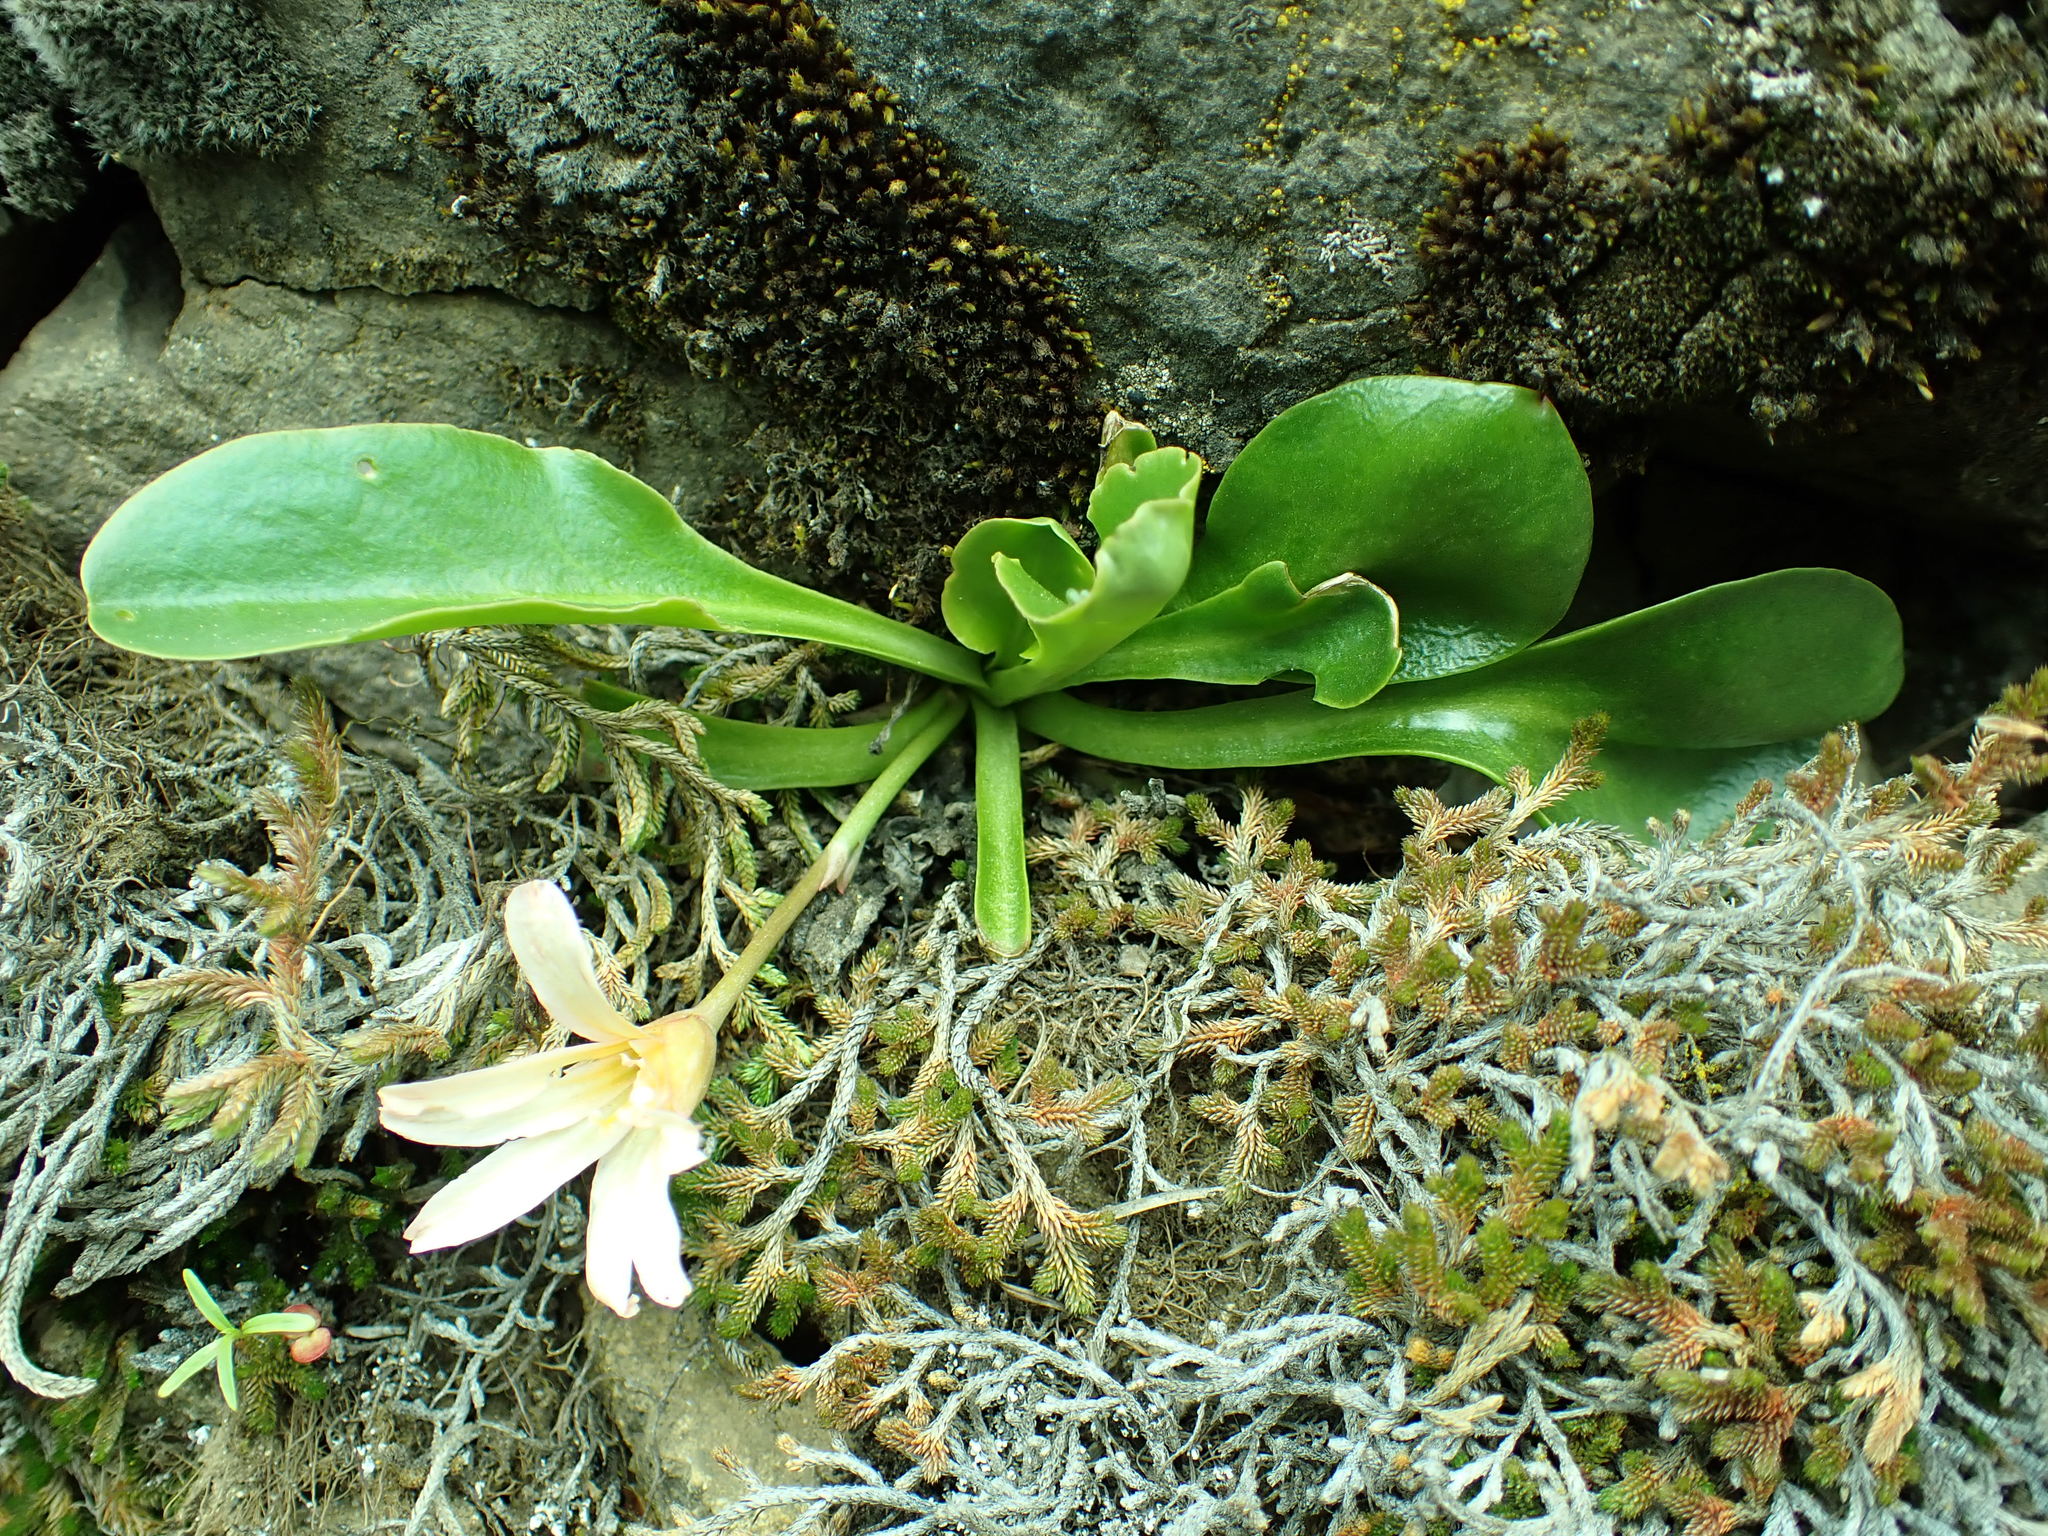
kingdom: Plantae
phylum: Tracheophyta
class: Magnoliopsida
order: Caryophyllales
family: Montiaceae
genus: Lewisiopsis
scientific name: Lewisiopsis tweedyi
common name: Tweedy's pussypaws
